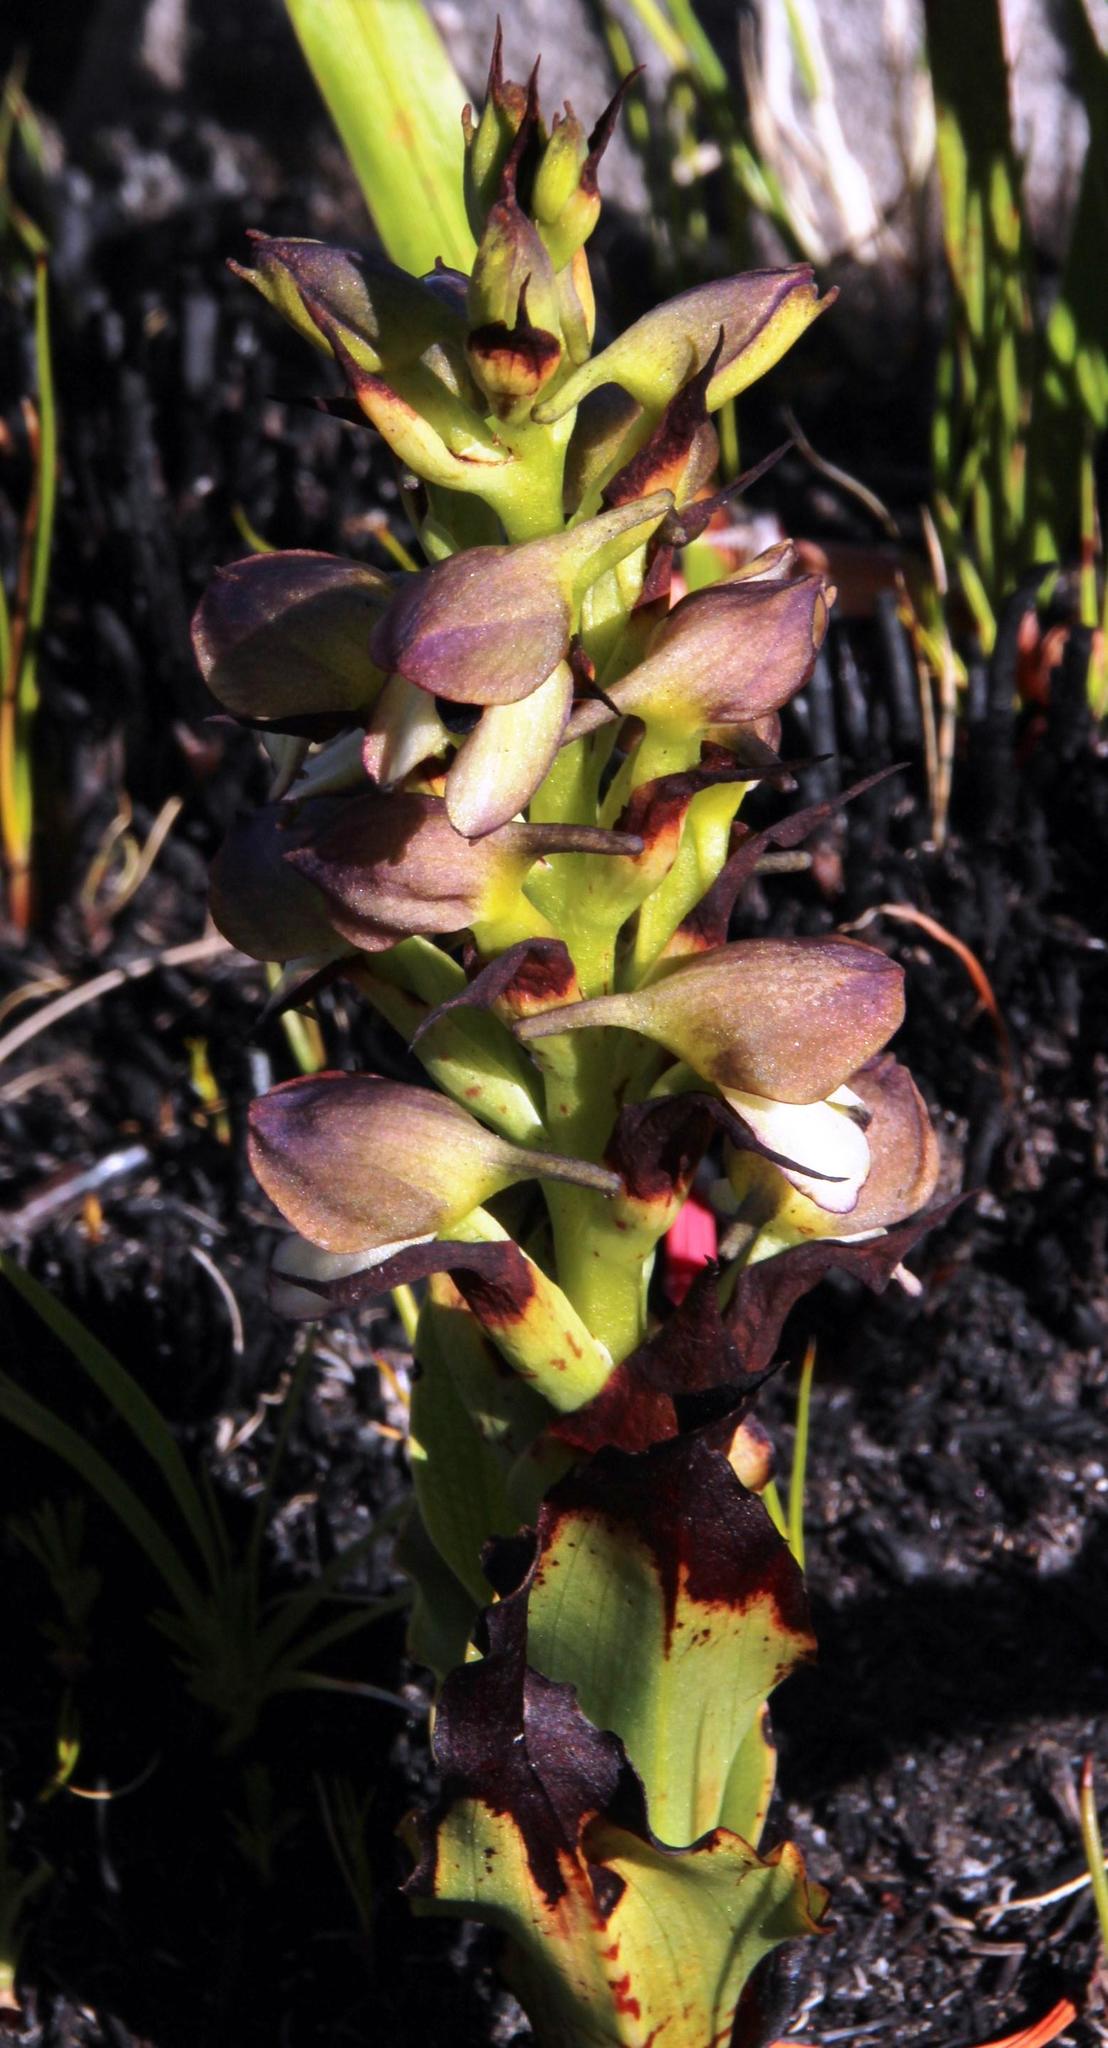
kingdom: Plantae
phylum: Tracheophyta
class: Liliopsida
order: Asparagales
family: Orchidaceae
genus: Disa
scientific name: Disa cornuta
